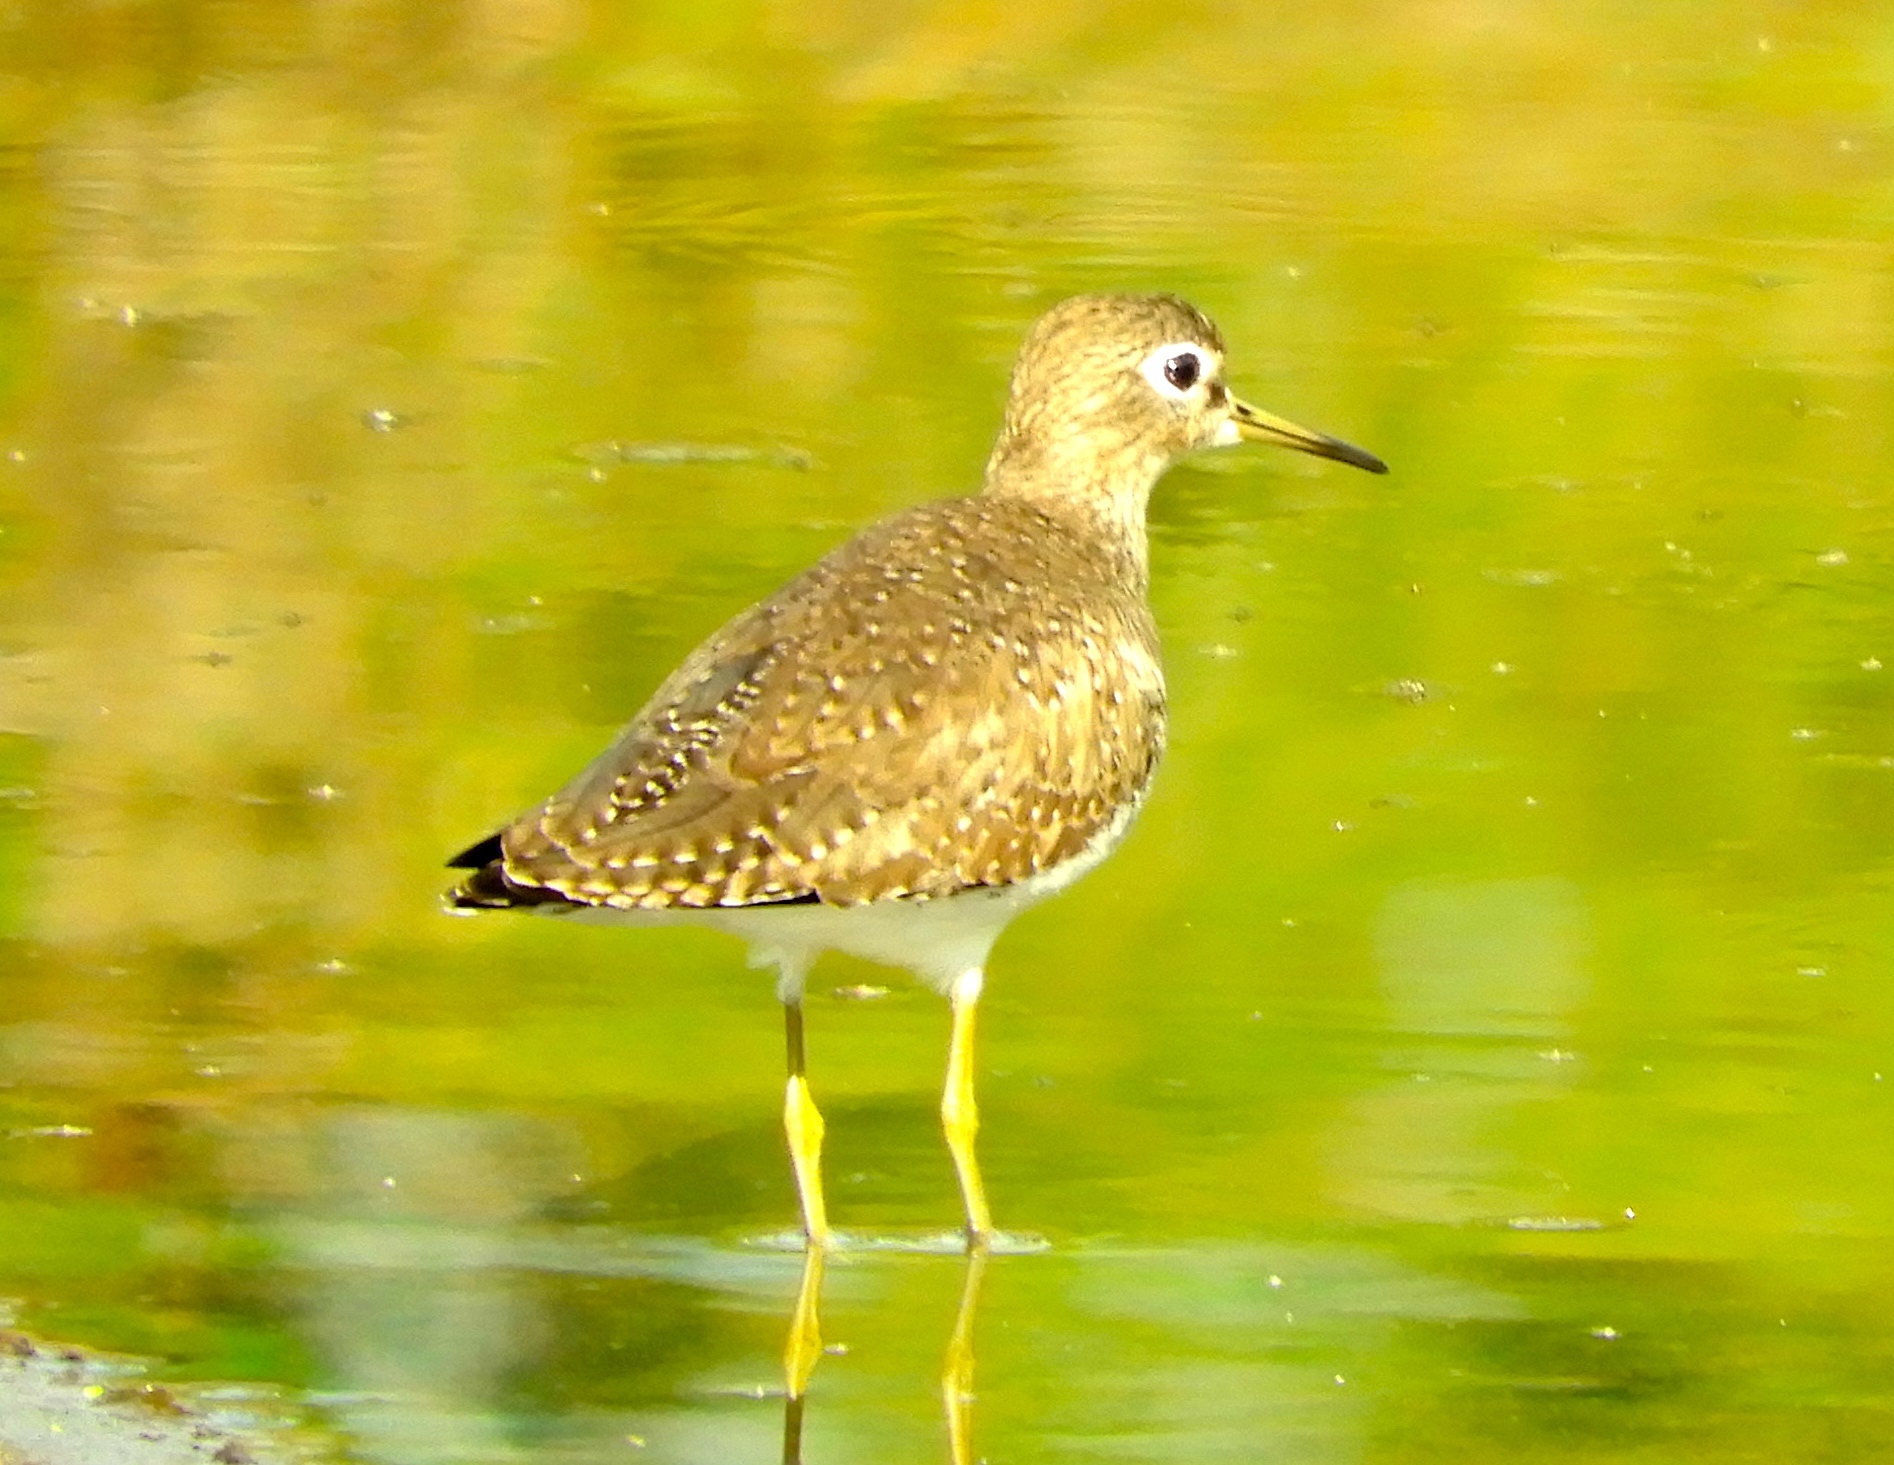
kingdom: Animalia
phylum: Chordata
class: Aves
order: Charadriiformes
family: Scolopacidae
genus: Tringa
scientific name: Tringa solitaria
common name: Solitary sandpiper
